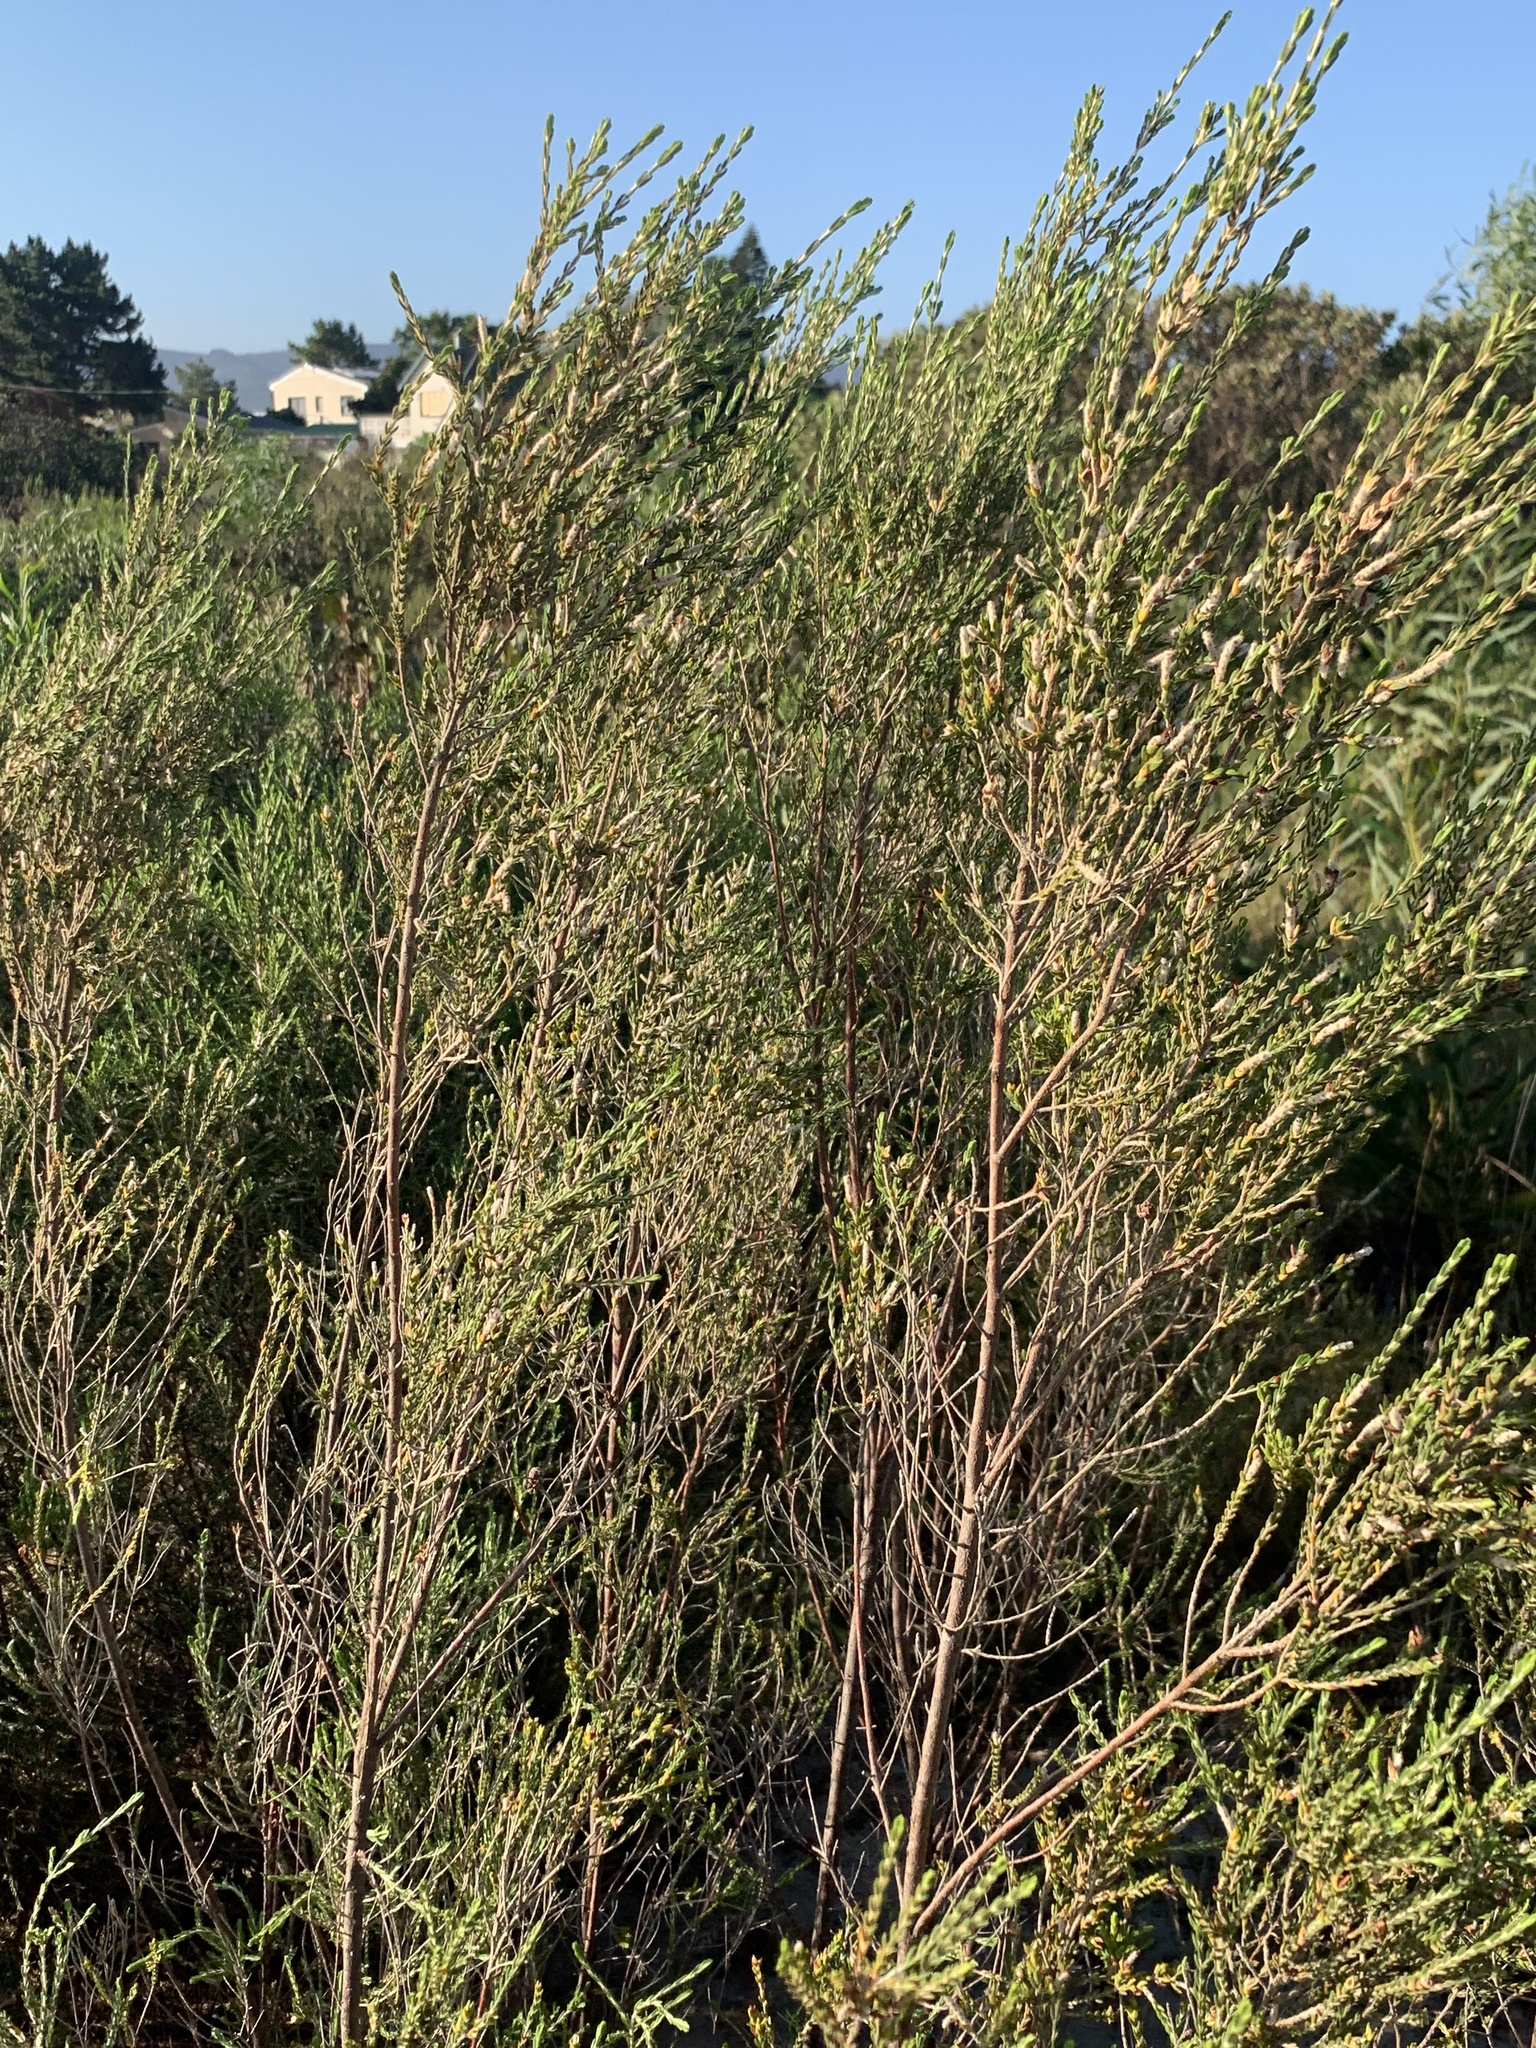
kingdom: Plantae
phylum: Tracheophyta
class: Magnoliopsida
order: Malvales
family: Thymelaeaceae
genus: Passerina
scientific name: Passerina corymbosa
